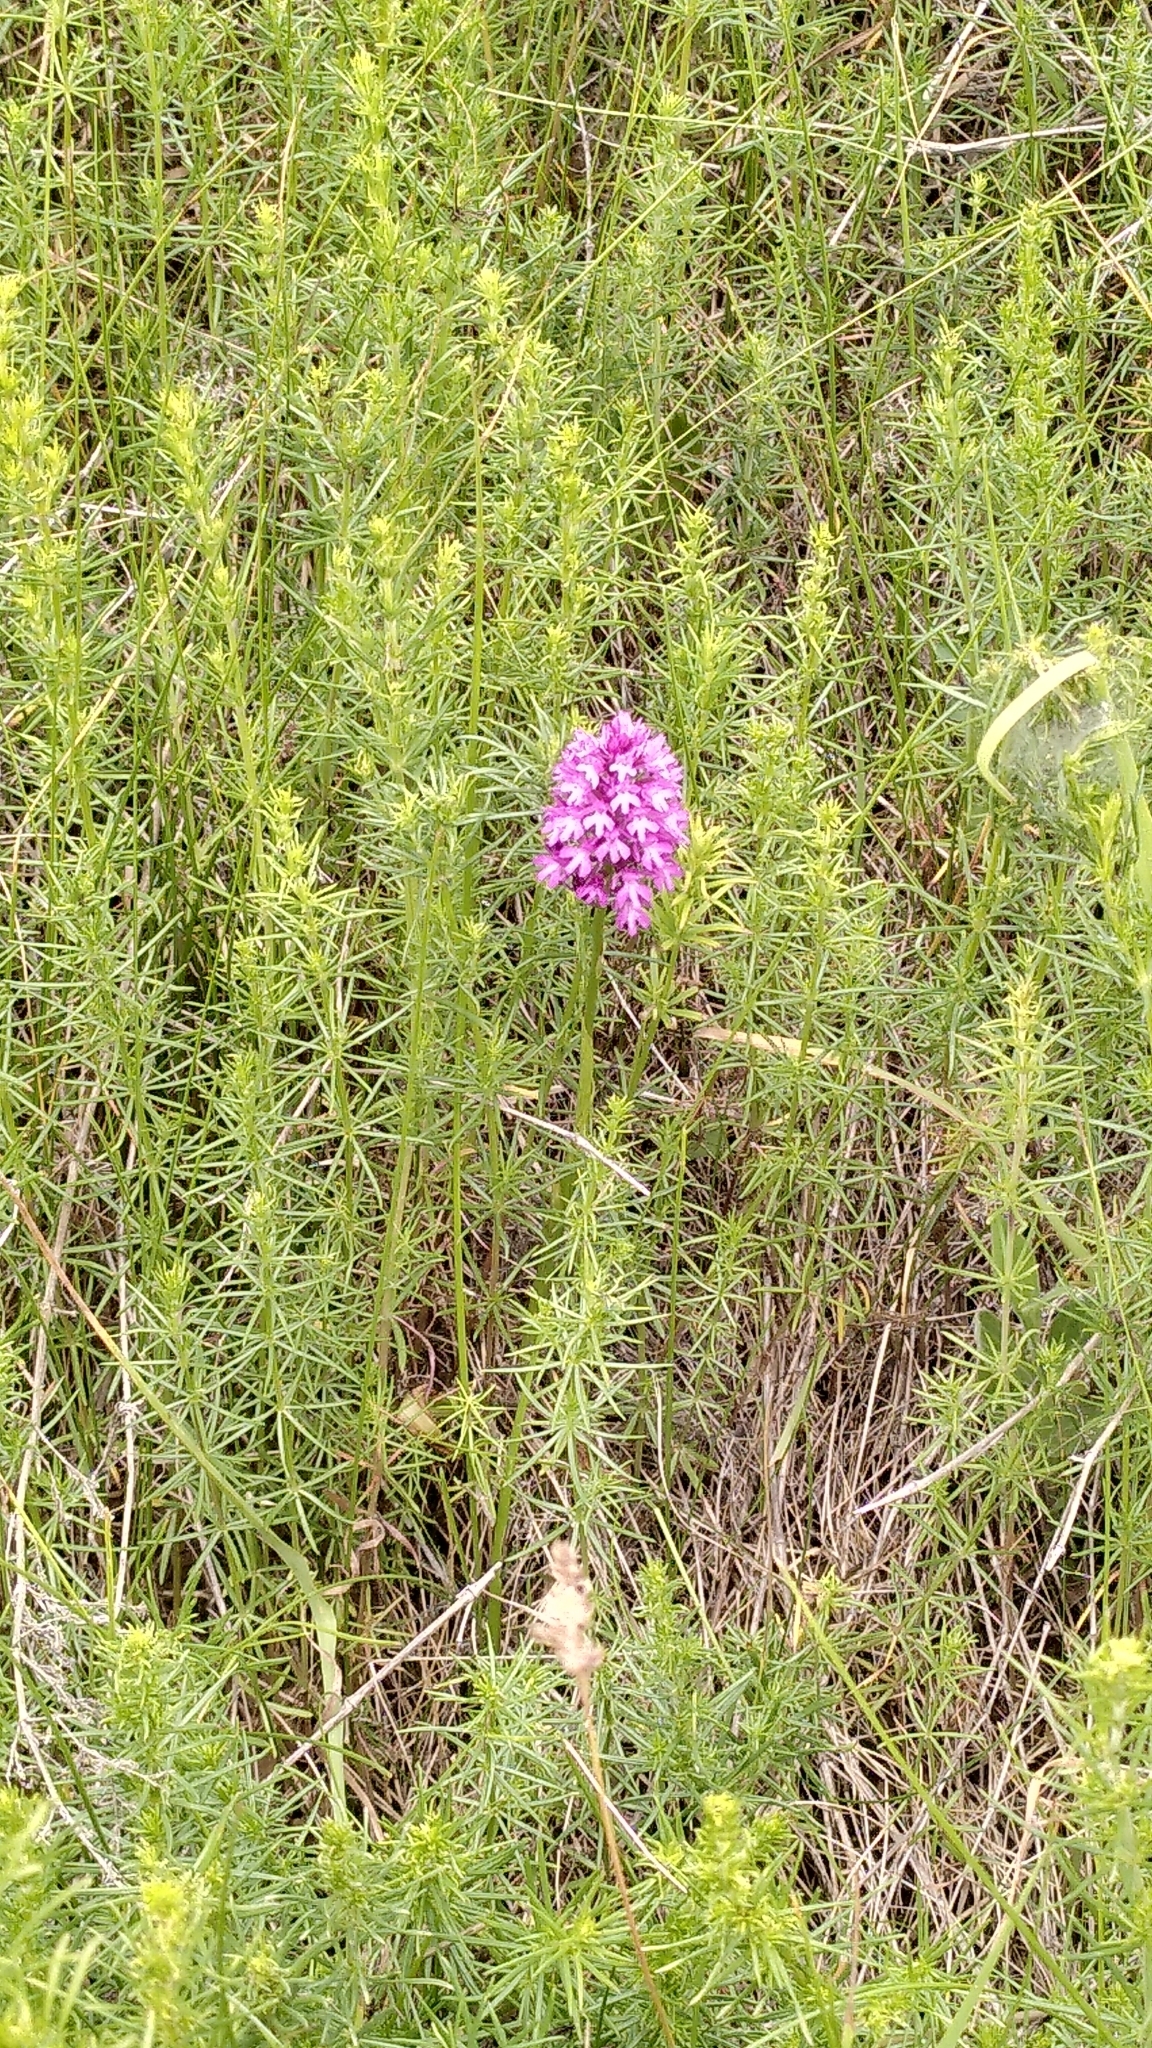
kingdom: Plantae
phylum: Tracheophyta
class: Liliopsida
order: Asparagales
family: Orchidaceae
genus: Anacamptis
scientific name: Anacamptis pyramidalis
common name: Pyramidal orchid
